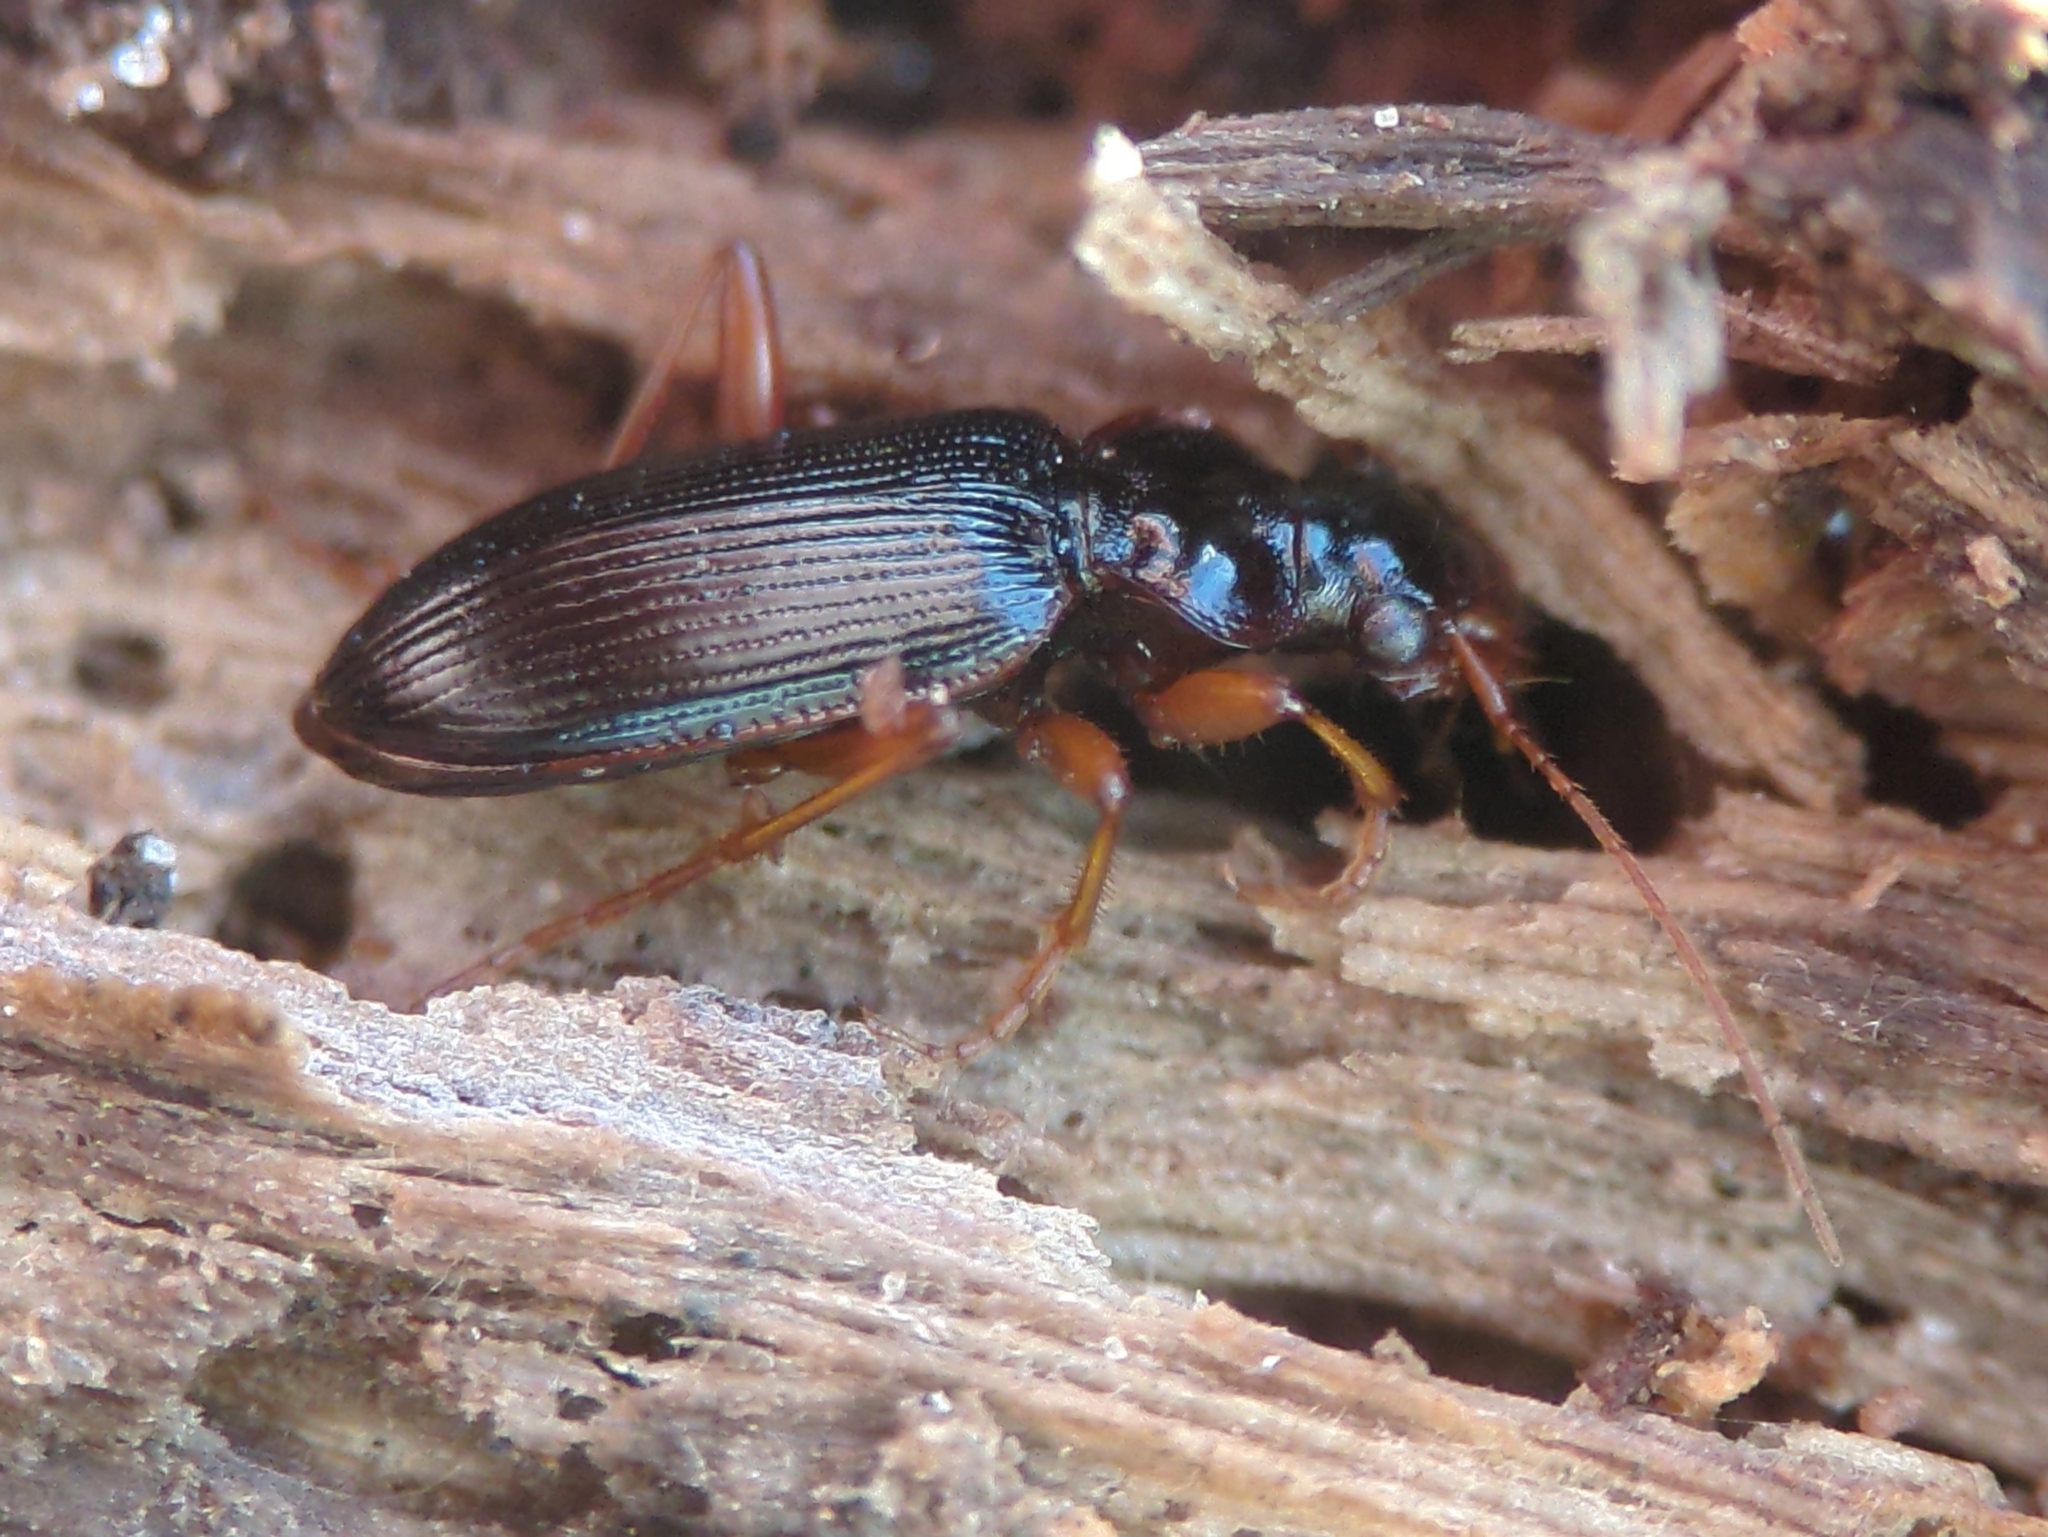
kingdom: Animalia
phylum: Arthropoda
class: Insecta
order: Coleoptera
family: Carabidae
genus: Leistus
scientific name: Leistus rufomarginatus
